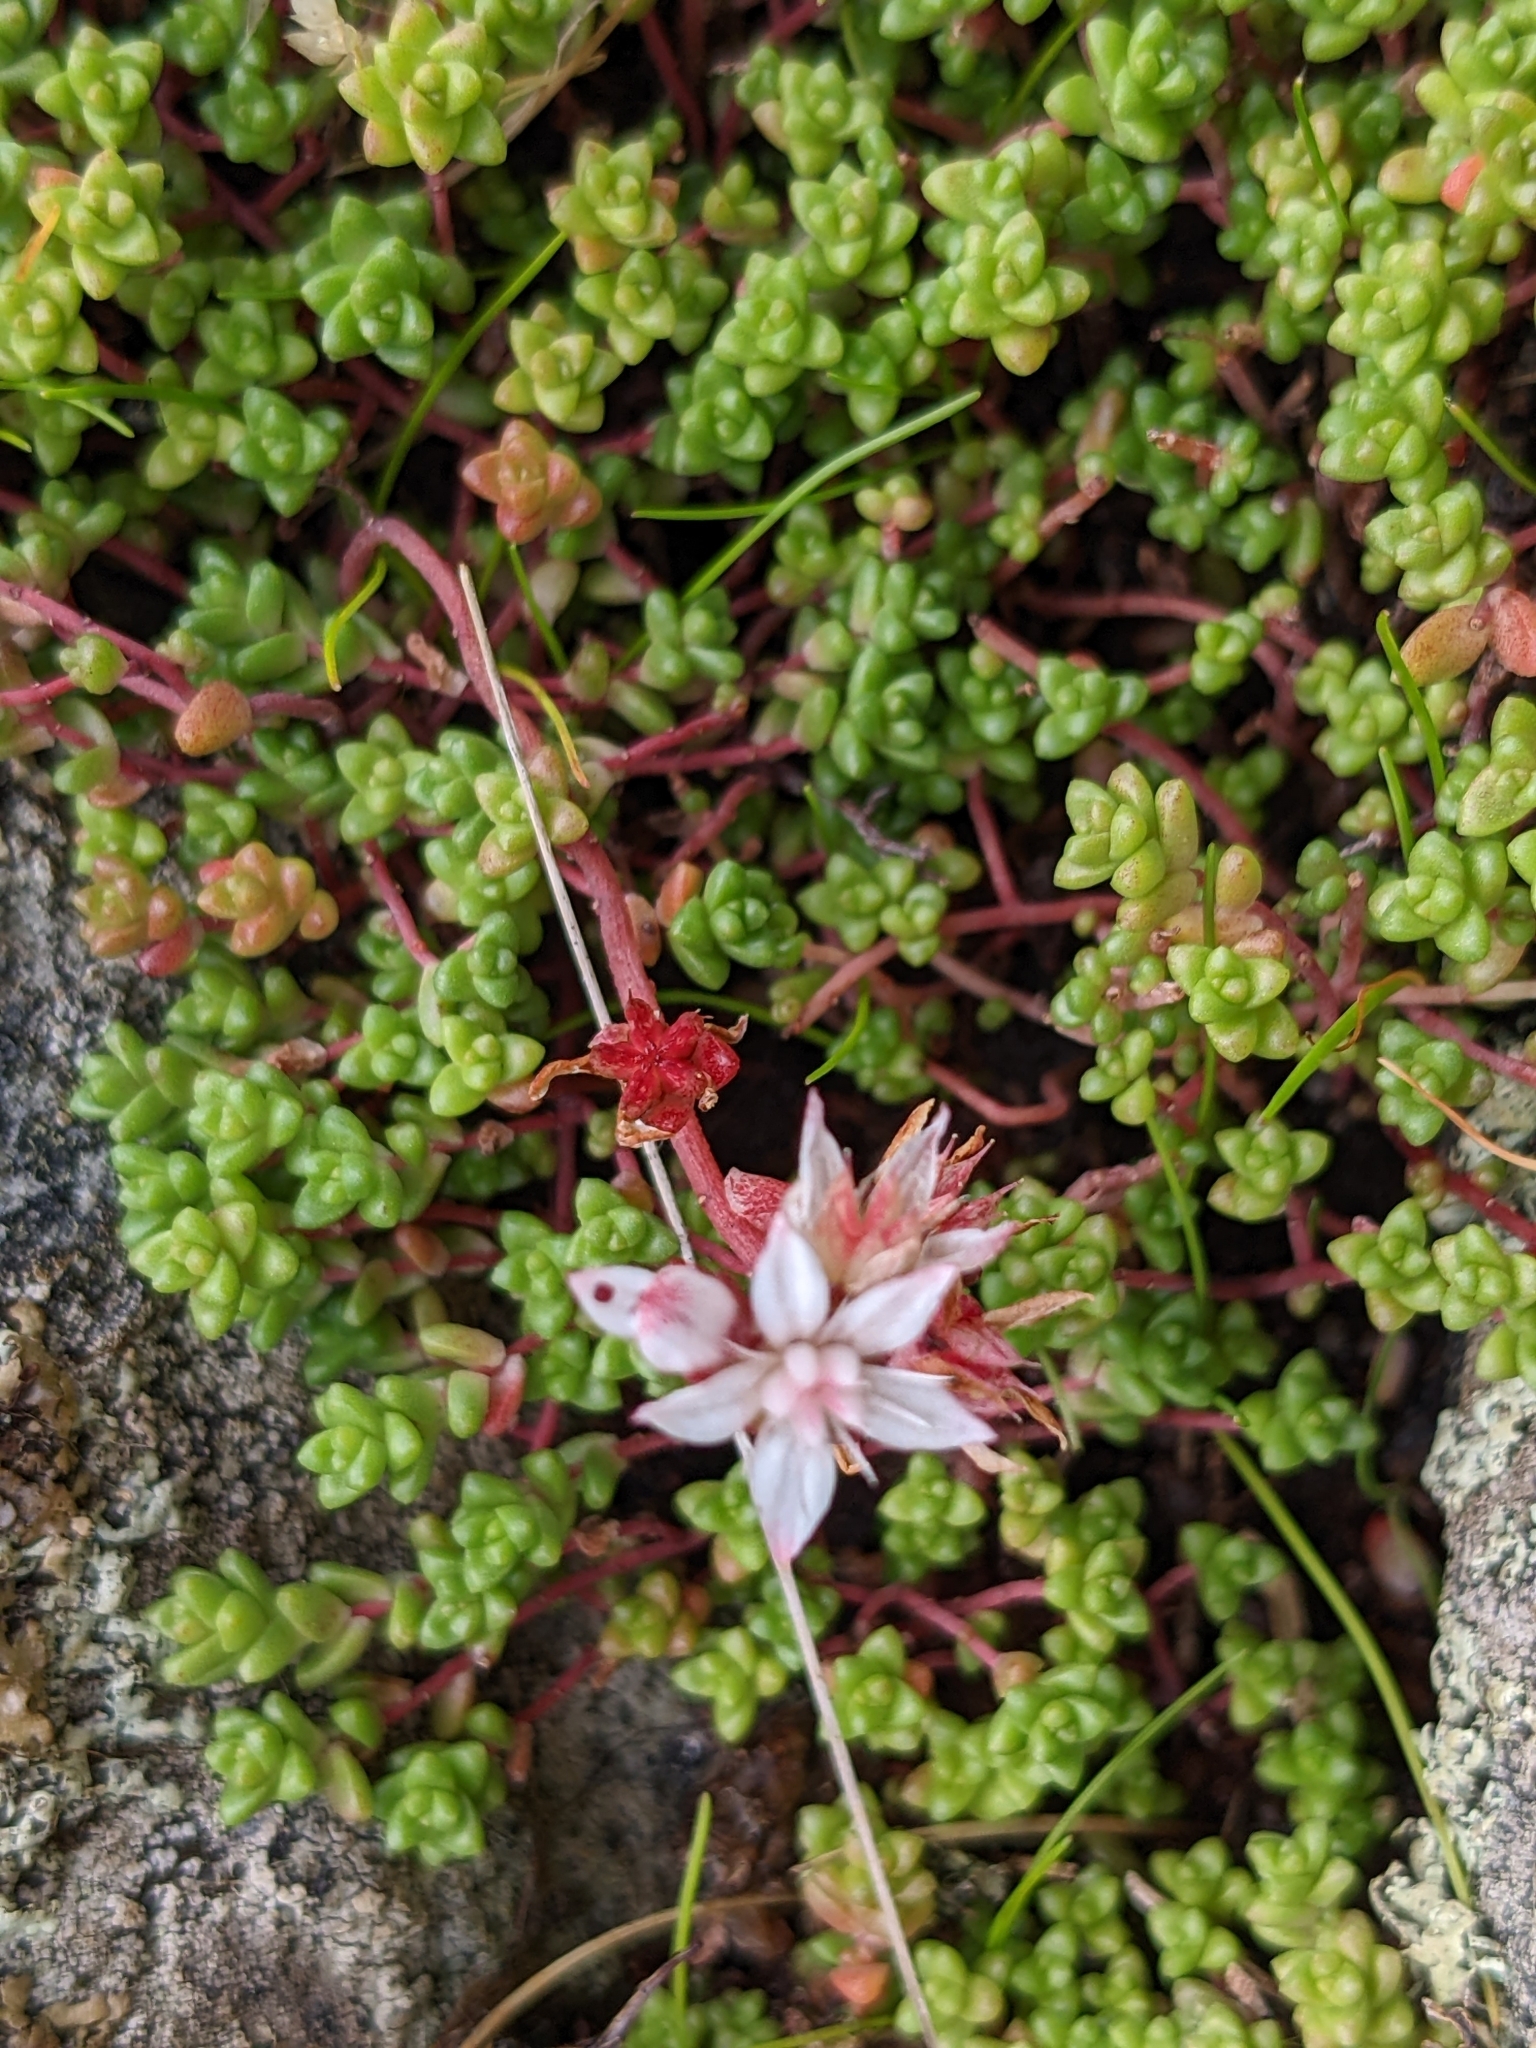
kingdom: Plantae
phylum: Tracheophyta
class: Magnoliopsida
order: Saxifragales
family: Crassulaceae
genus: Sedum
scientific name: Sedum anglicum
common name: English stonecrop
